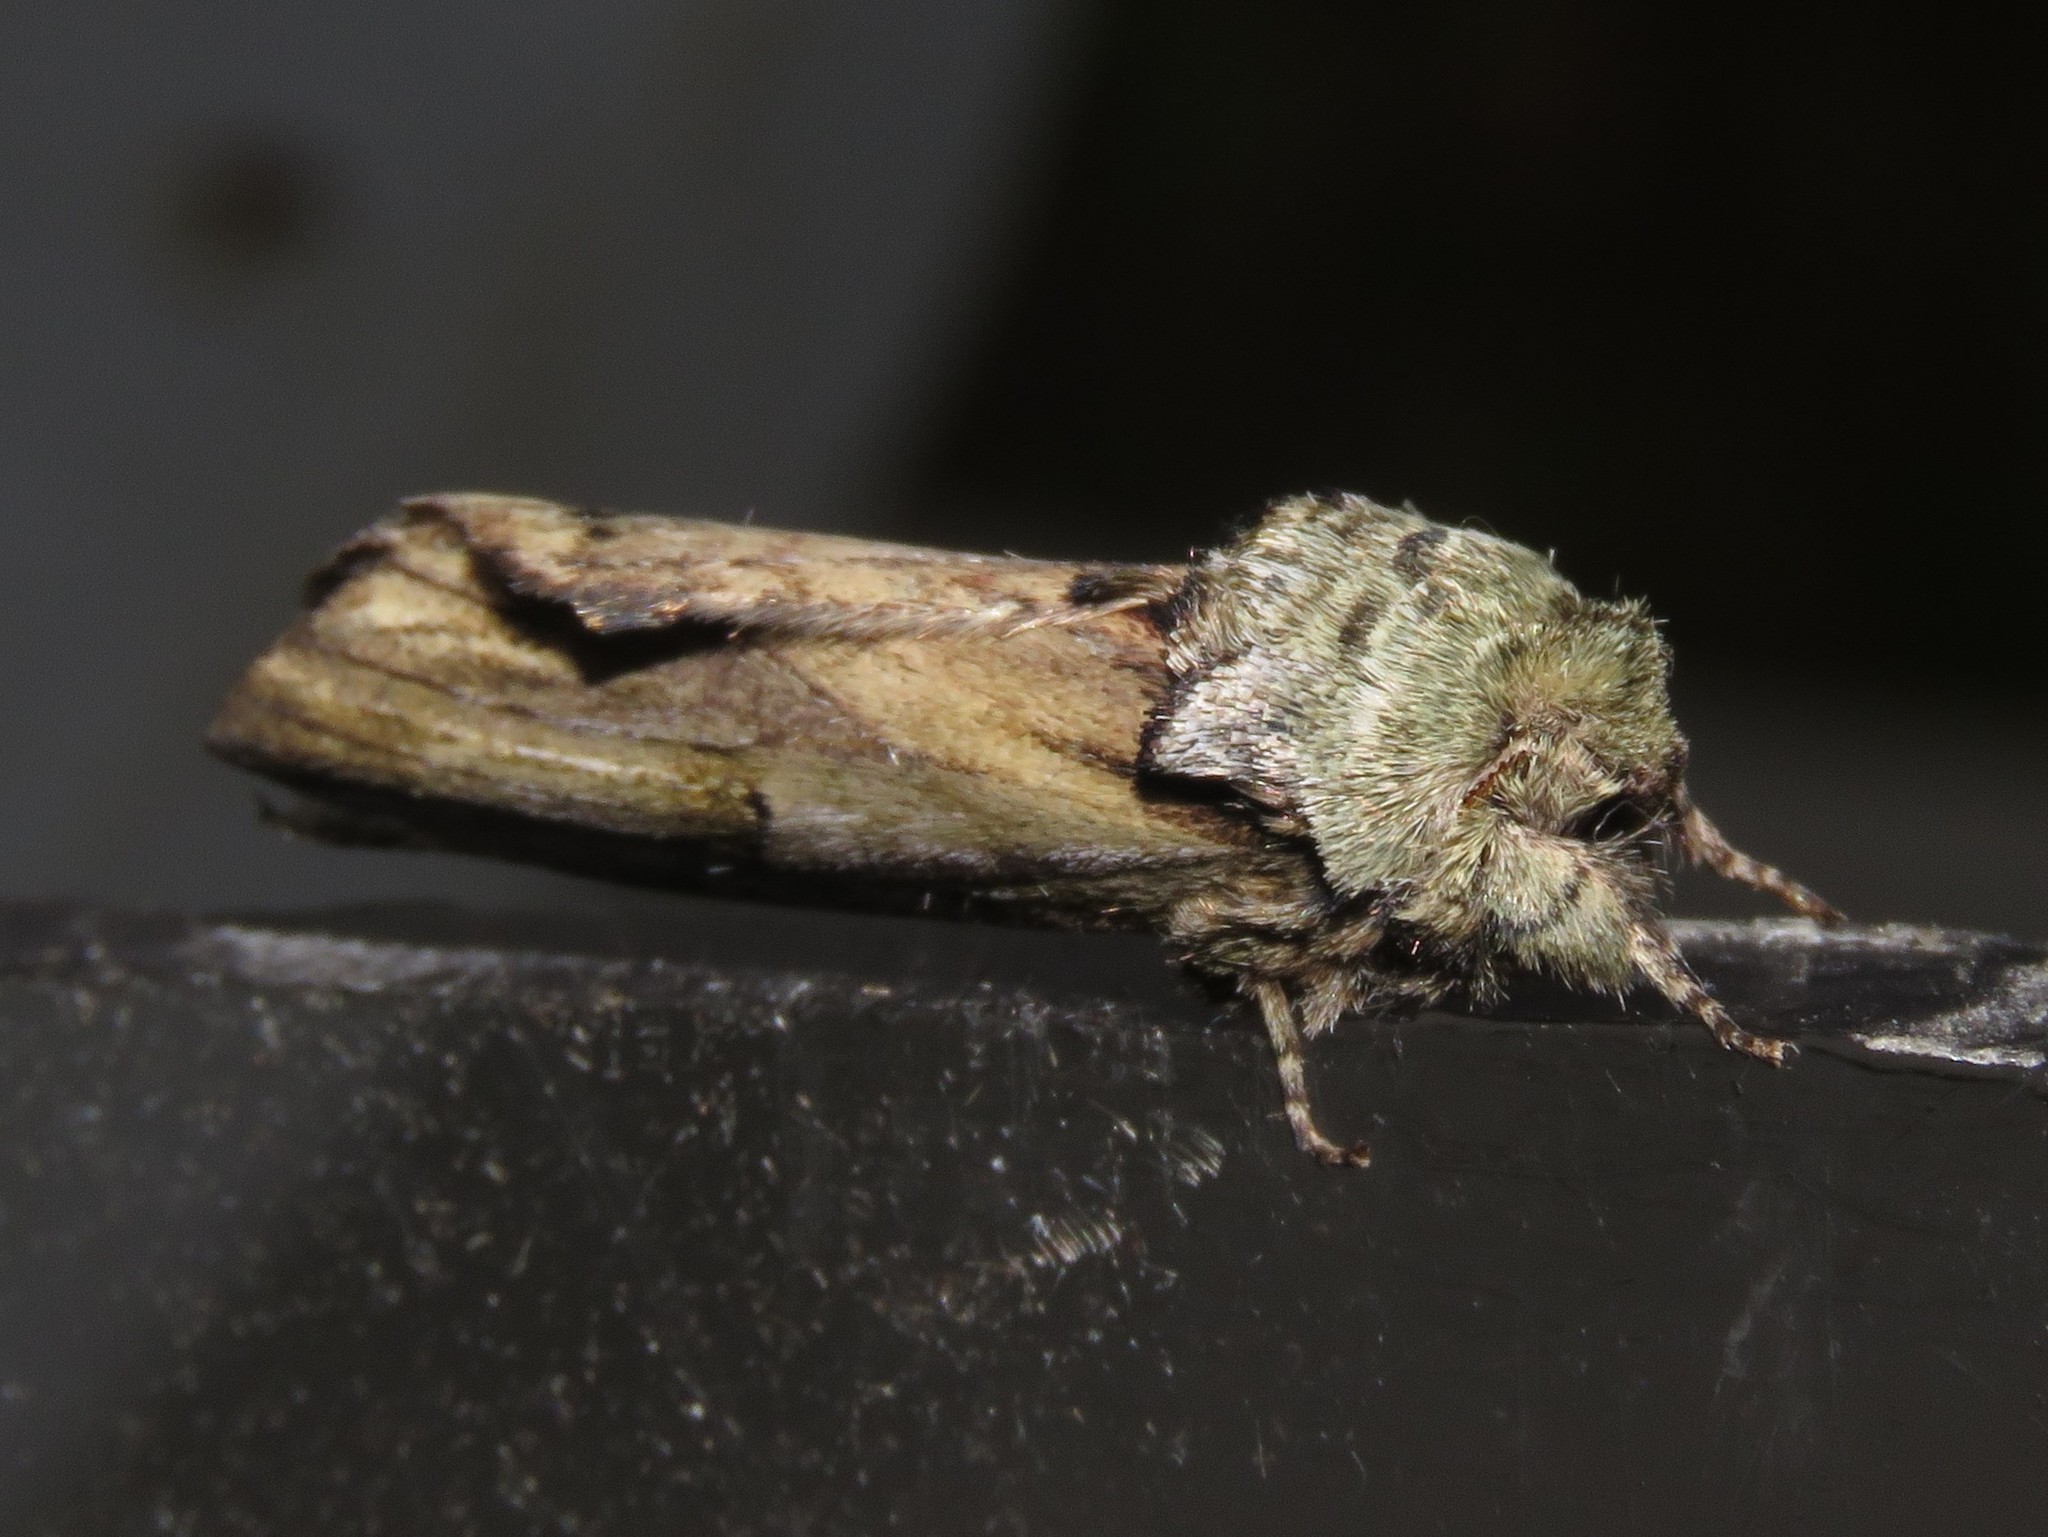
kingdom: Animalia
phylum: Arthropoda
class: Insecta
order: Lepidoptera
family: Notodontidae
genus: Schizura
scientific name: Schizura
